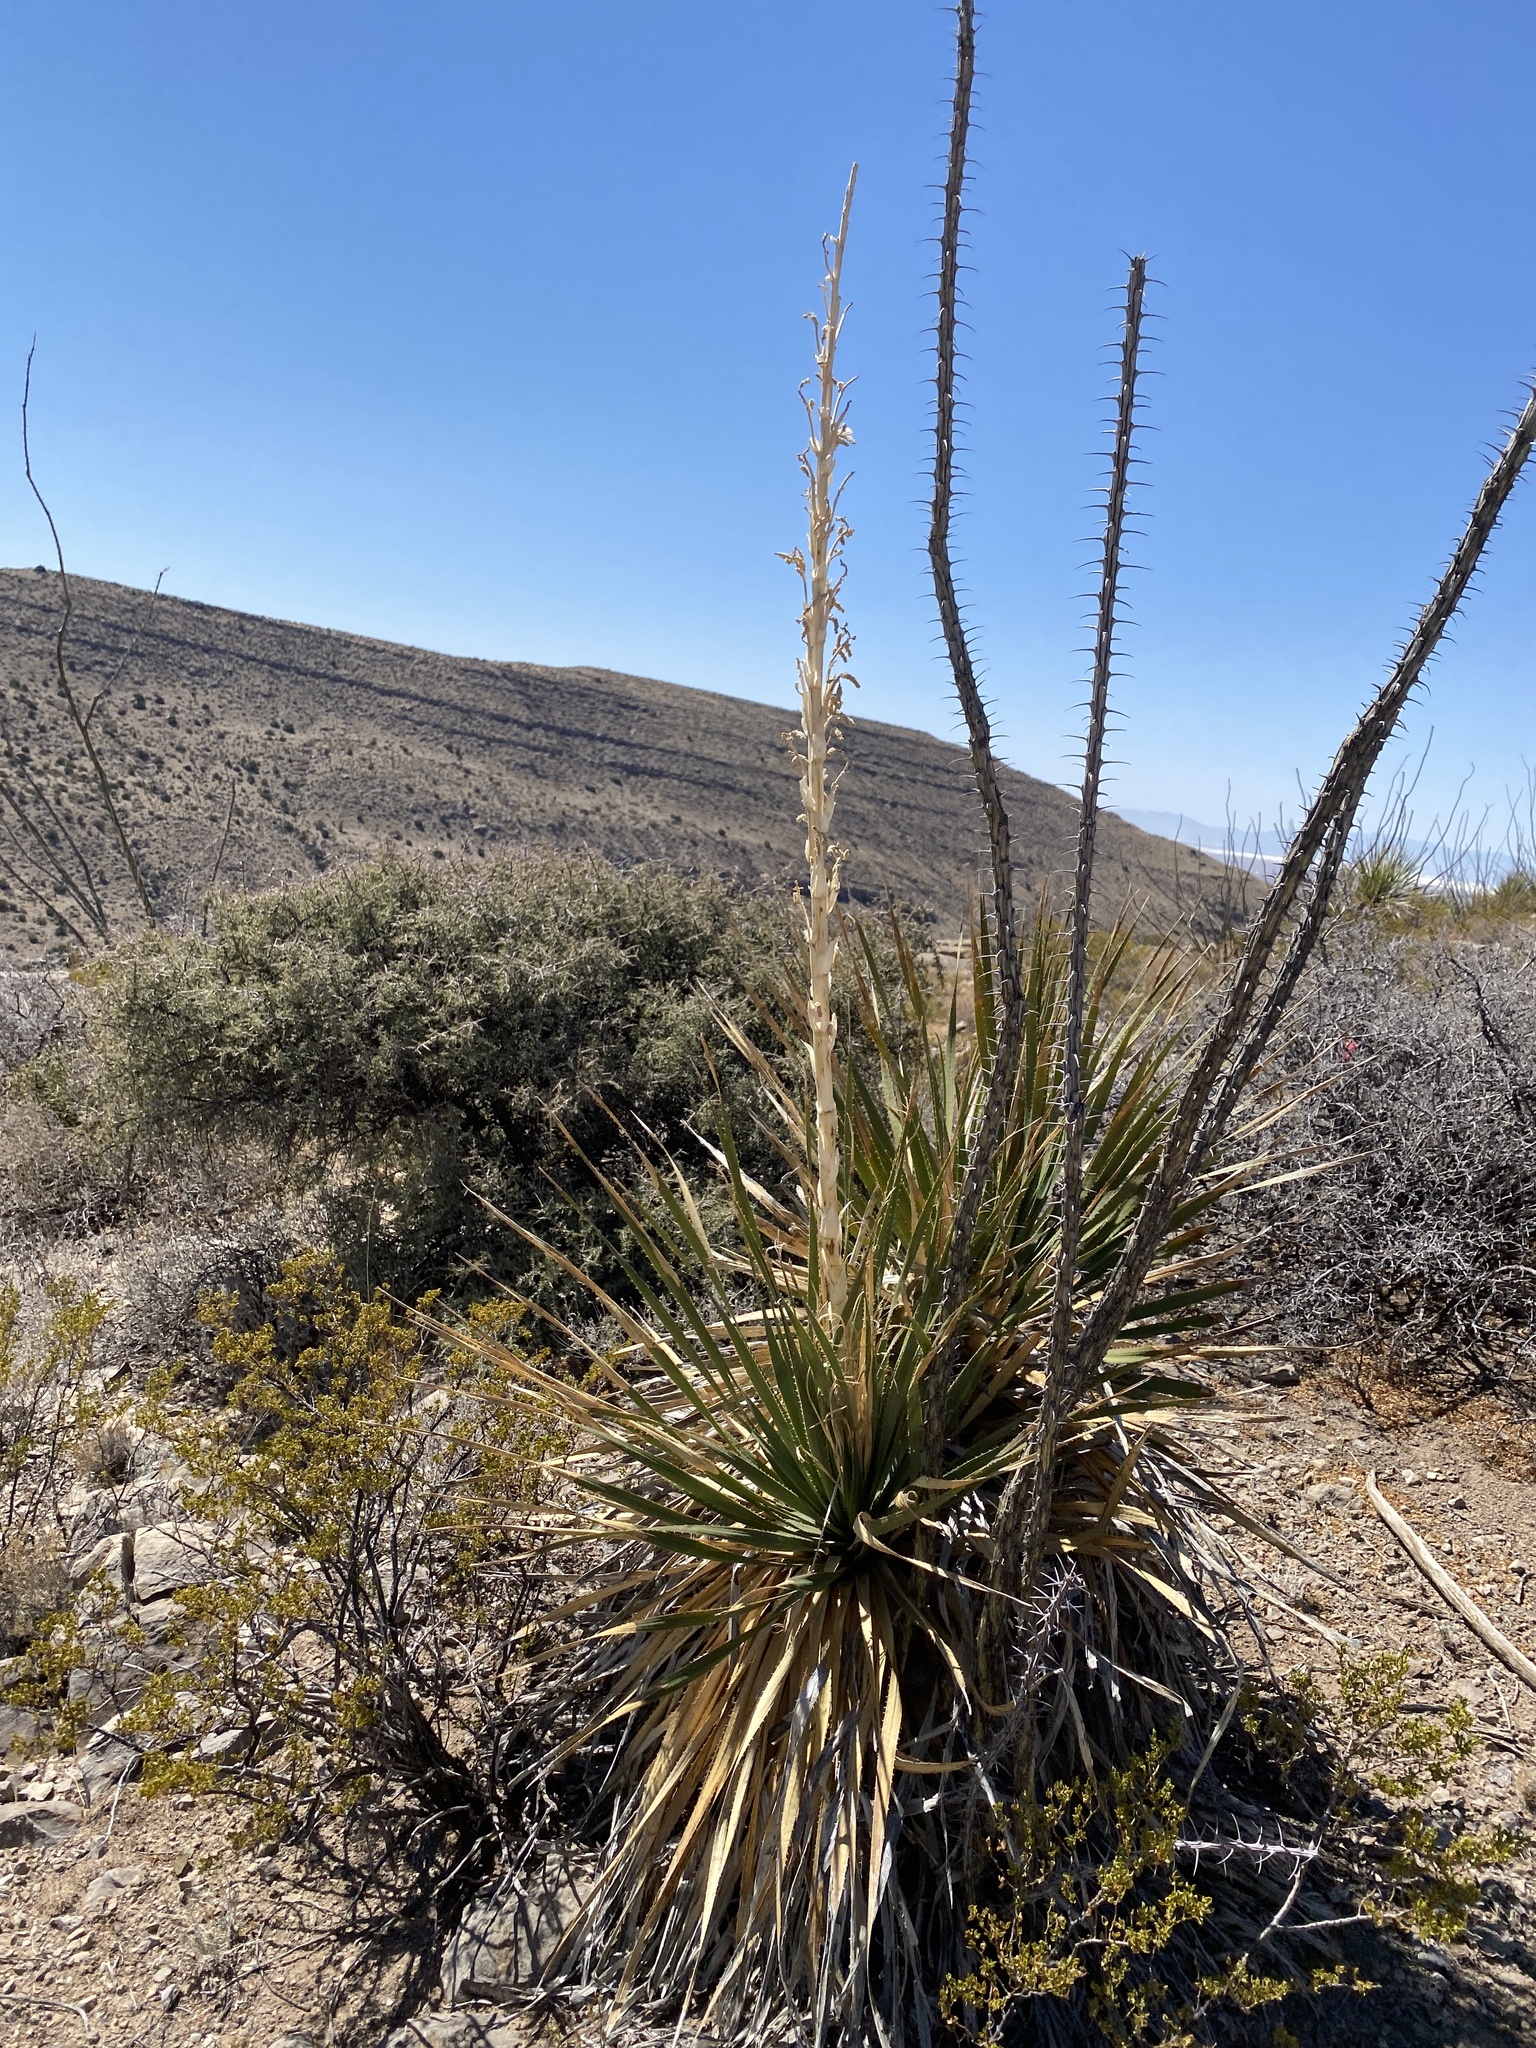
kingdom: Plantae
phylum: Tracheophyta
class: Liliopsida
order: Asparagales
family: Asparagaceae
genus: Dasylirion
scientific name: Dasylirion wheeleri
